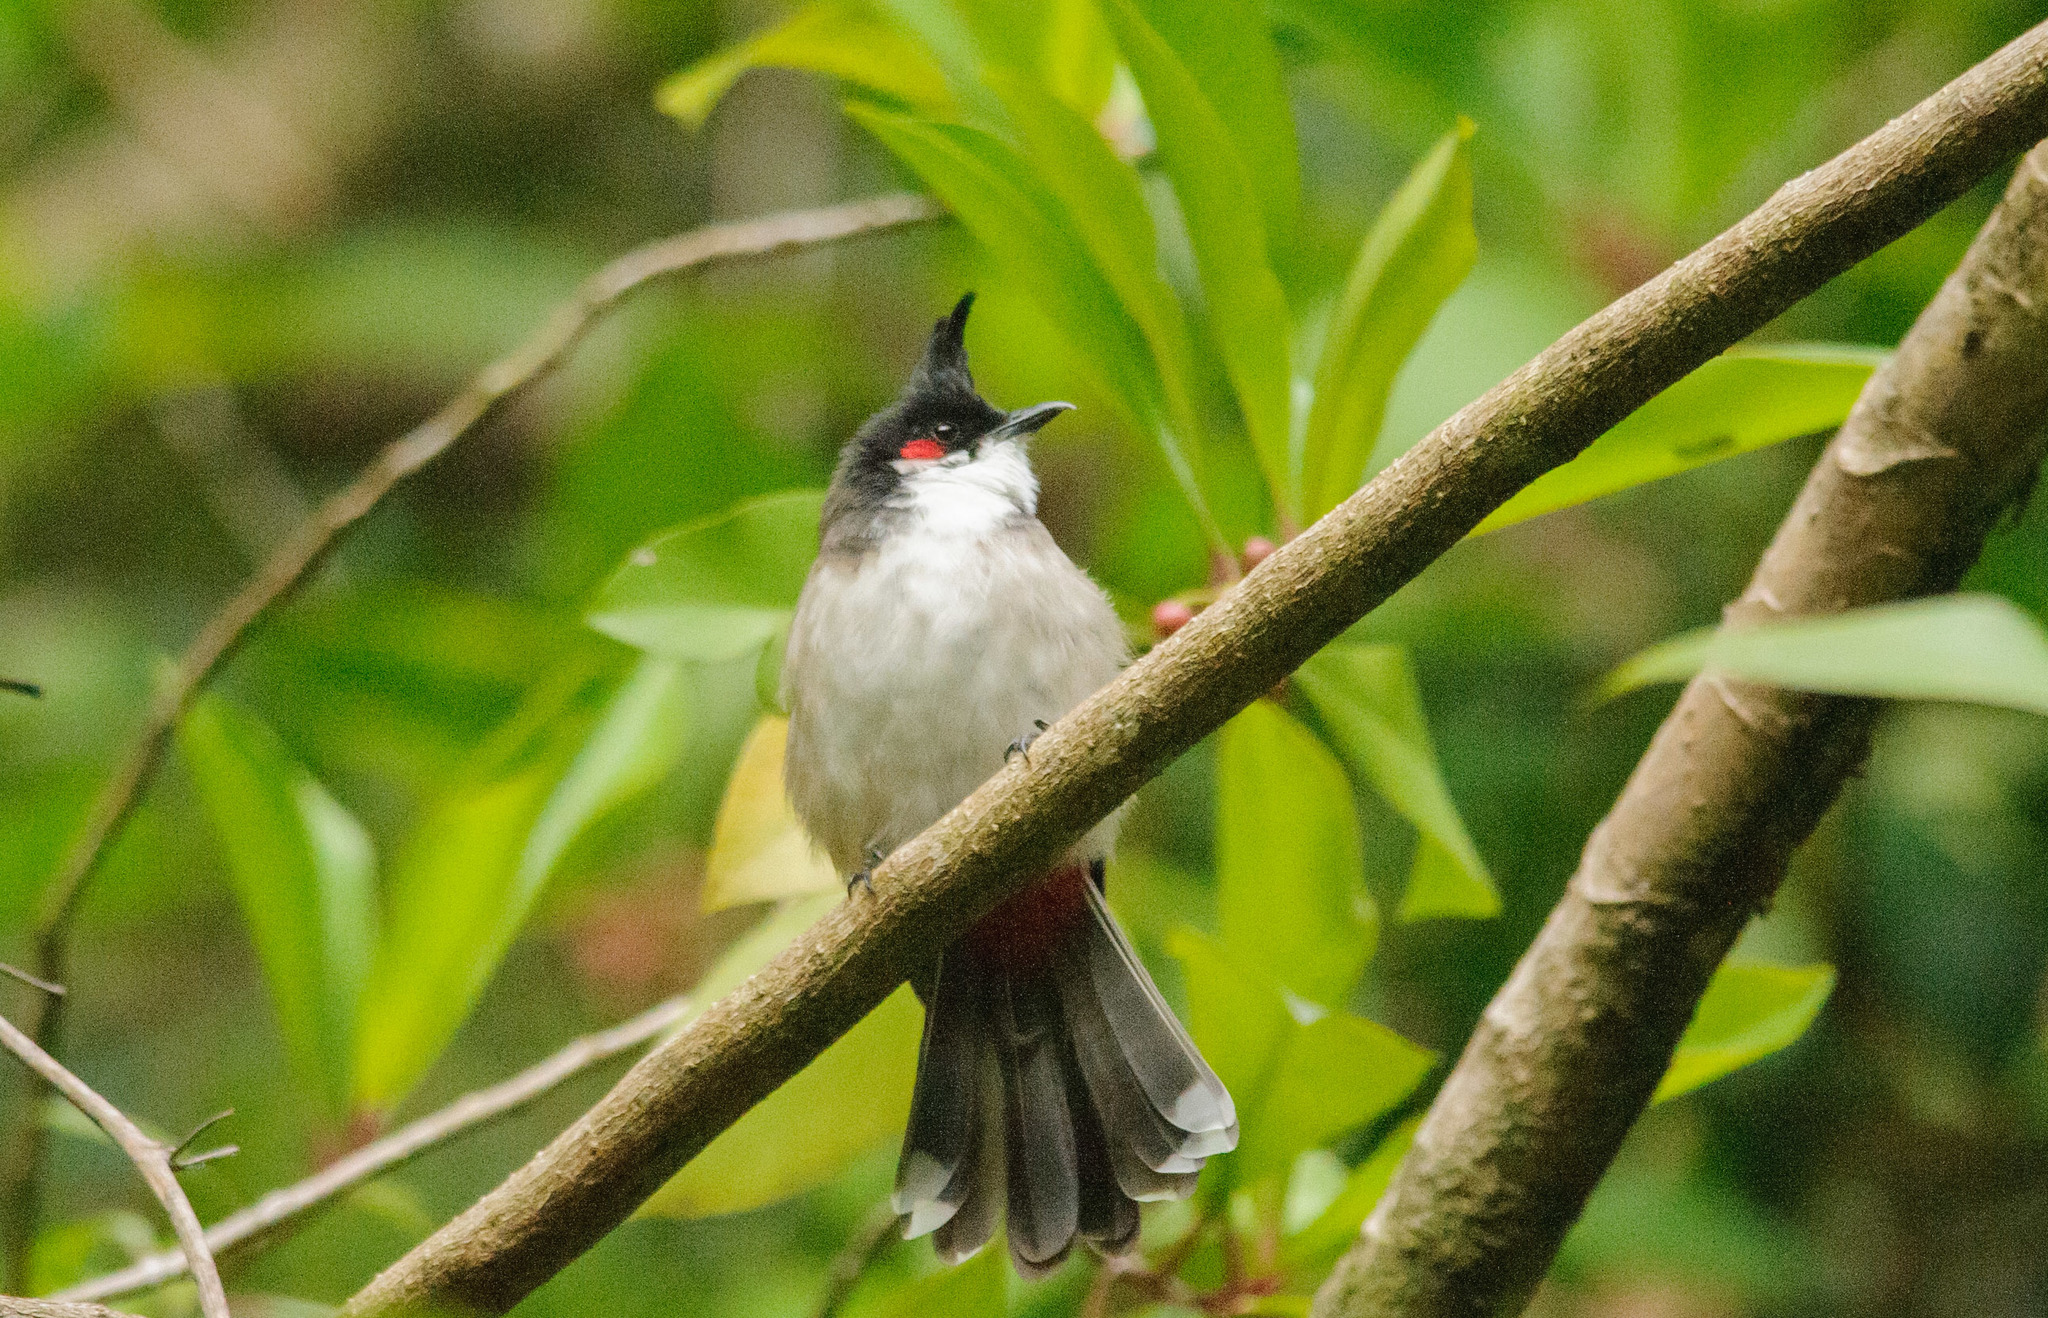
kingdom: Animalia
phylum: Chordata
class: Aves
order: Passeriformes
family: Pycnonotidae
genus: Pycnonotus
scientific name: Pycnonotus jocosus
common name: Red-whiskered bulbul
